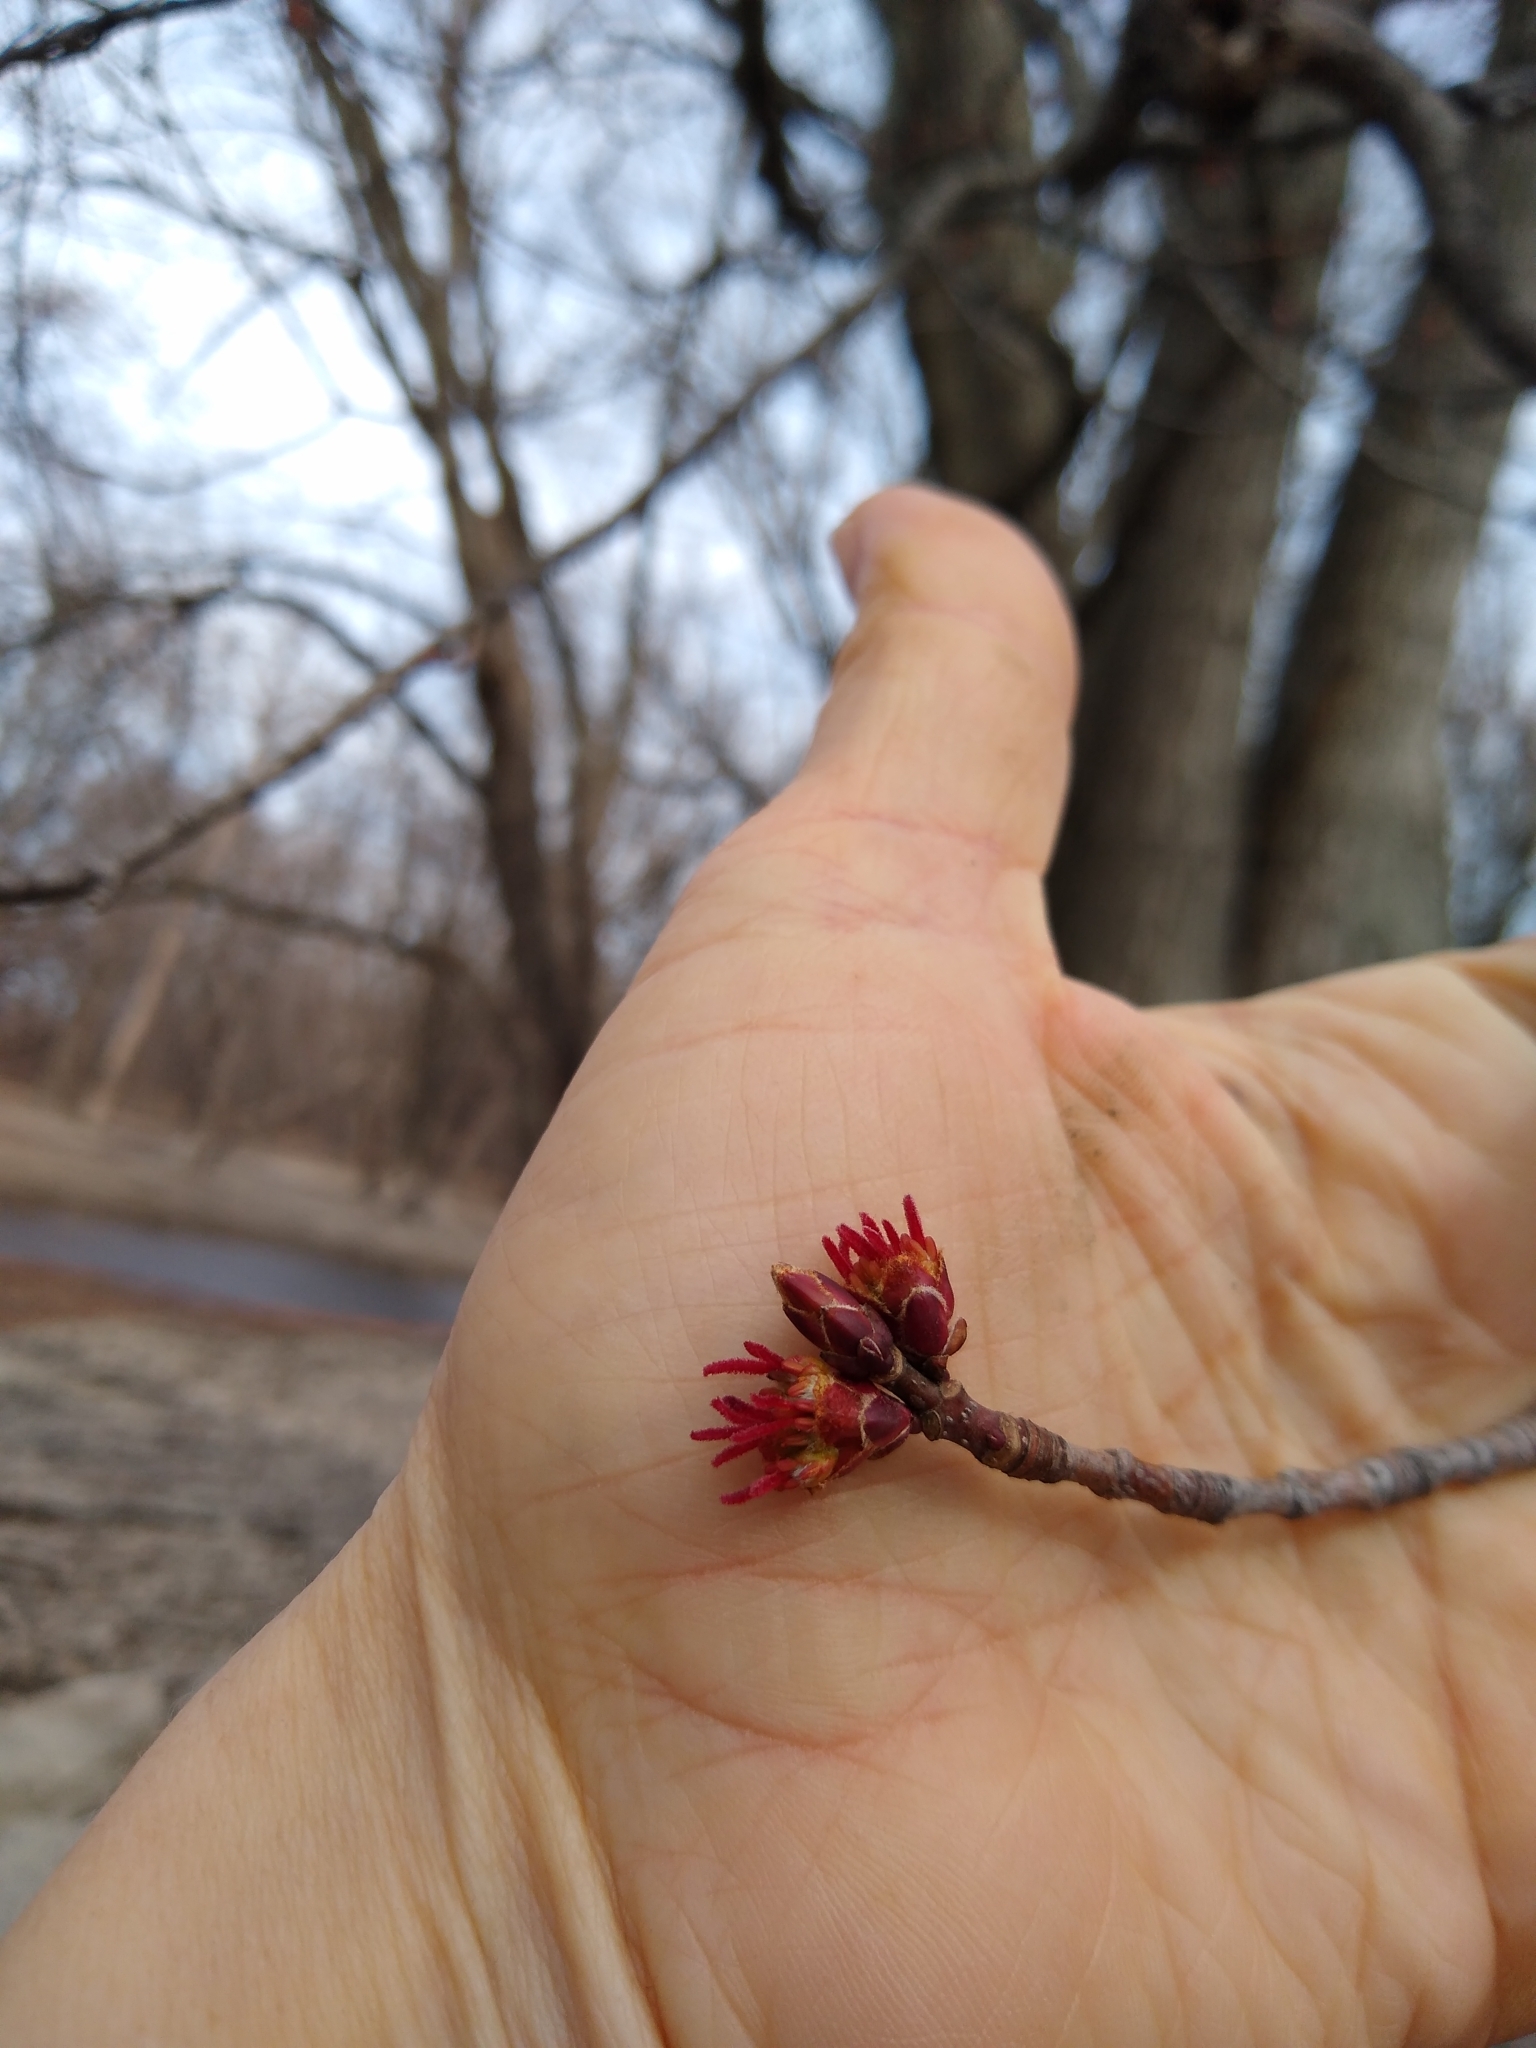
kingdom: Plantae
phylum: Tracheophyta
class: Magnoliopsida
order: Sapindales
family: Sapindaceae
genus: Acer
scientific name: Acer rubrum
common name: Red maple
